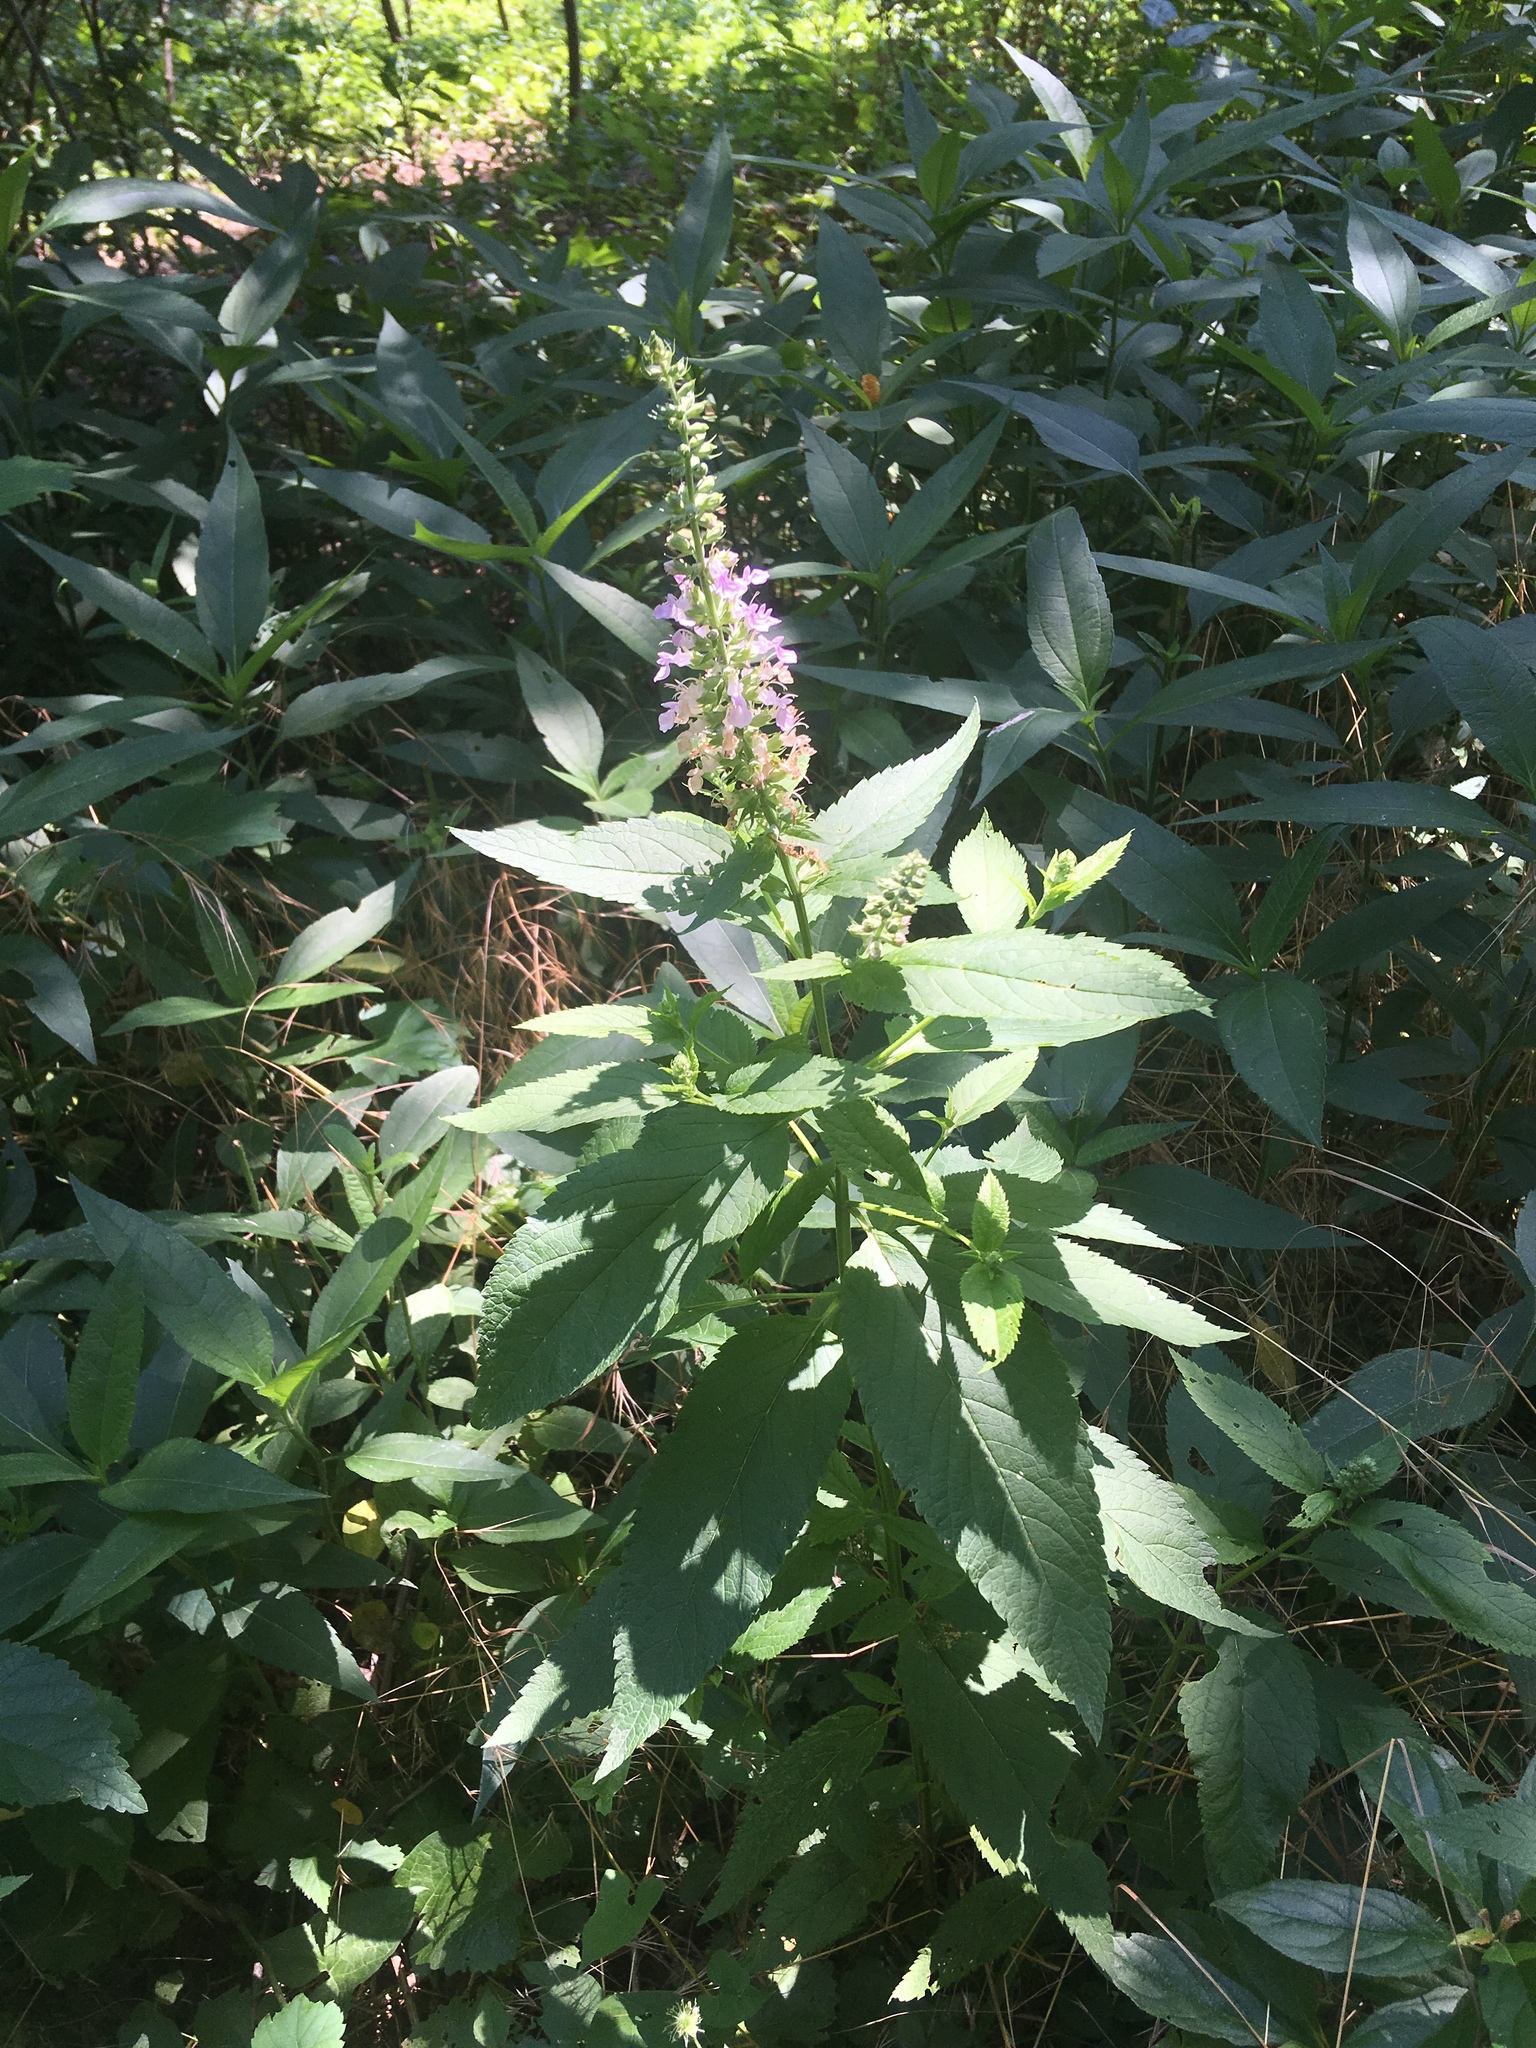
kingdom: Plantae
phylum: Tracheophyta
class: Magnoliopsida
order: Lamiales
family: Lamiaceae
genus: Teucrium
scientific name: Teucrium canadense
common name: American germander
